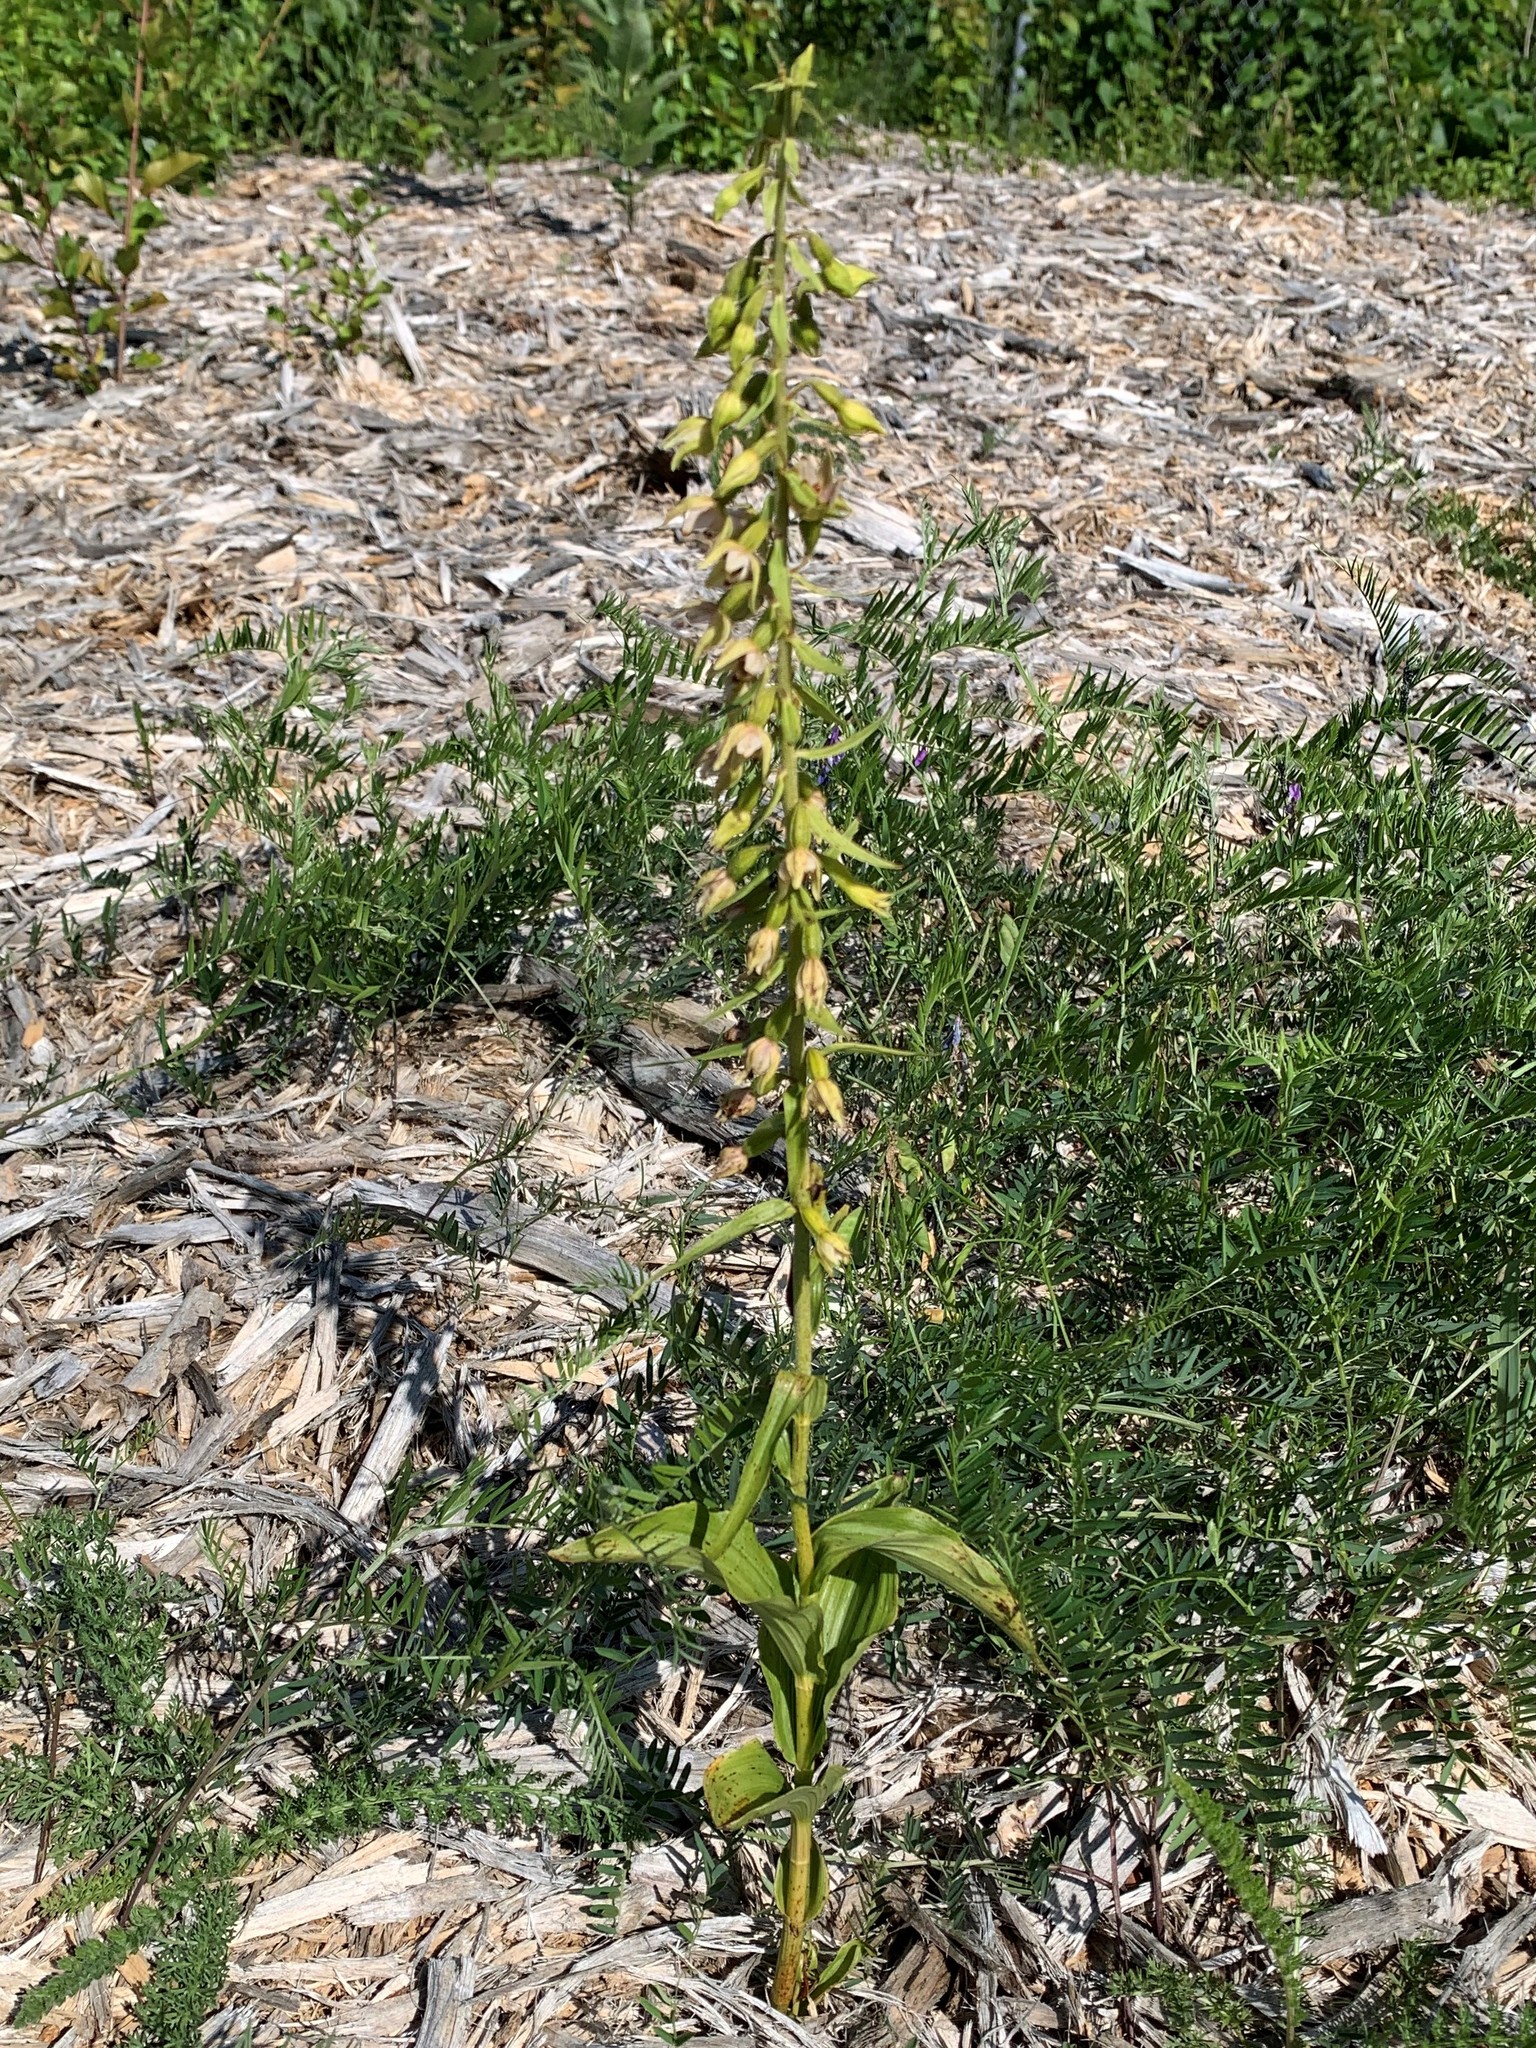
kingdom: Plantae
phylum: Tracheophyta
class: Liliopsida
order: Asparagales
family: Orchidaceae
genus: Epipactis
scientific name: Epipactis helleborine
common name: Broad-leaved helleborine
